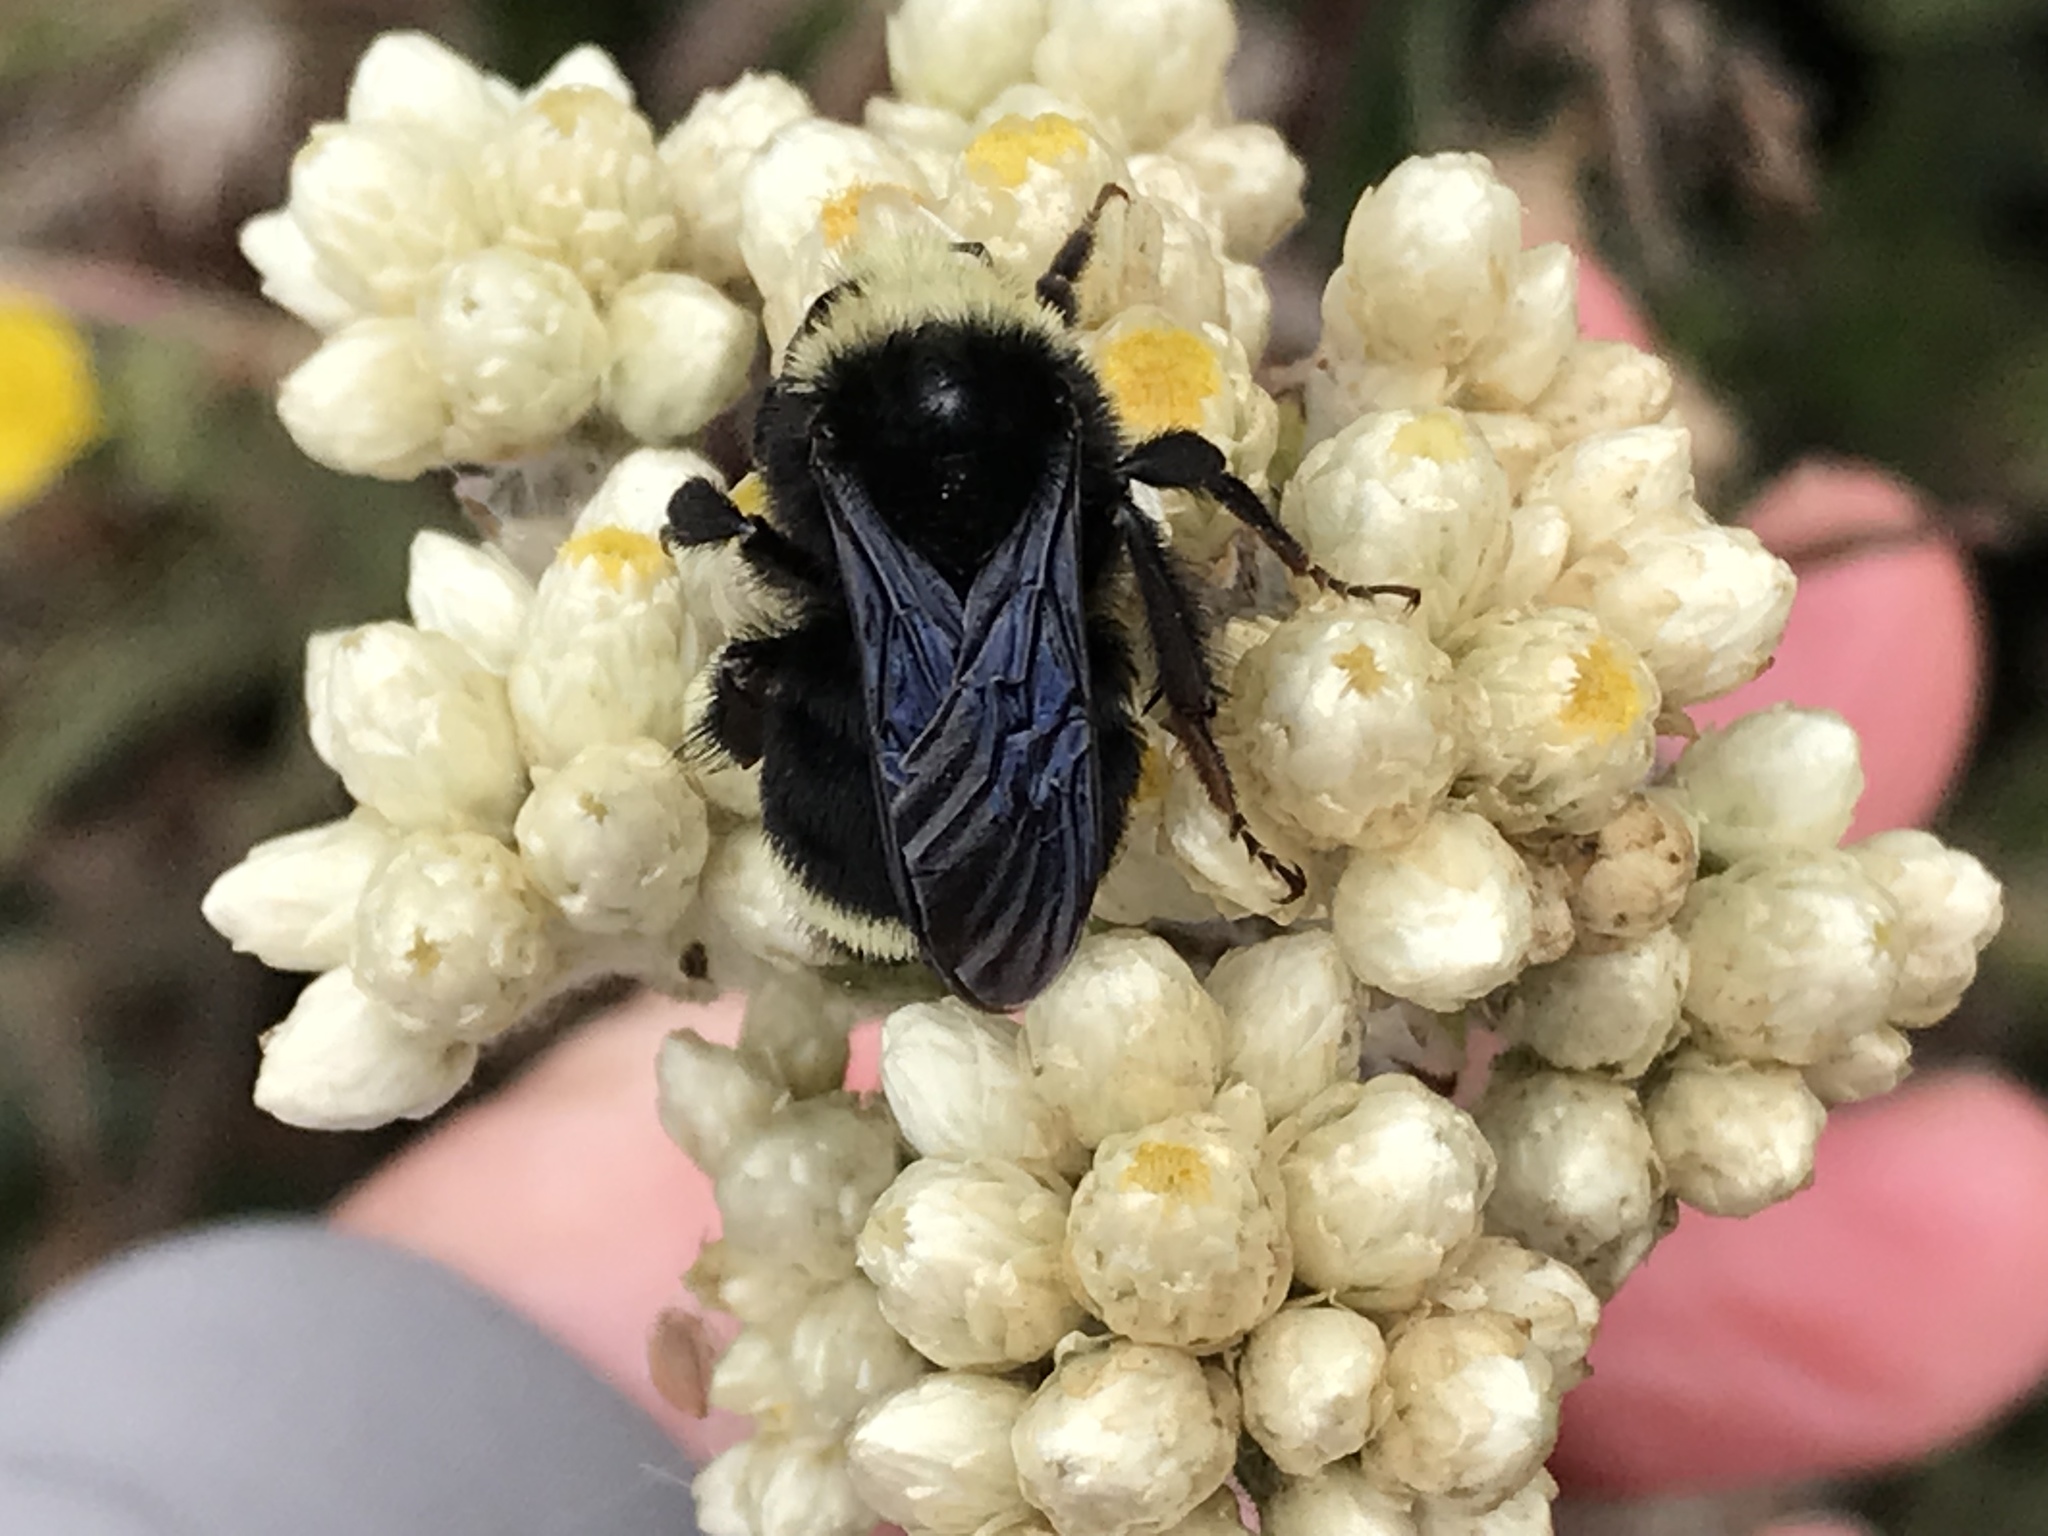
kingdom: Animalia
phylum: Arthropoda
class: Insecta
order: Hymenoptera
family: Apidae
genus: Bombus
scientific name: Bombus vosnesenskii
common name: Vosnesensky bumble bee
